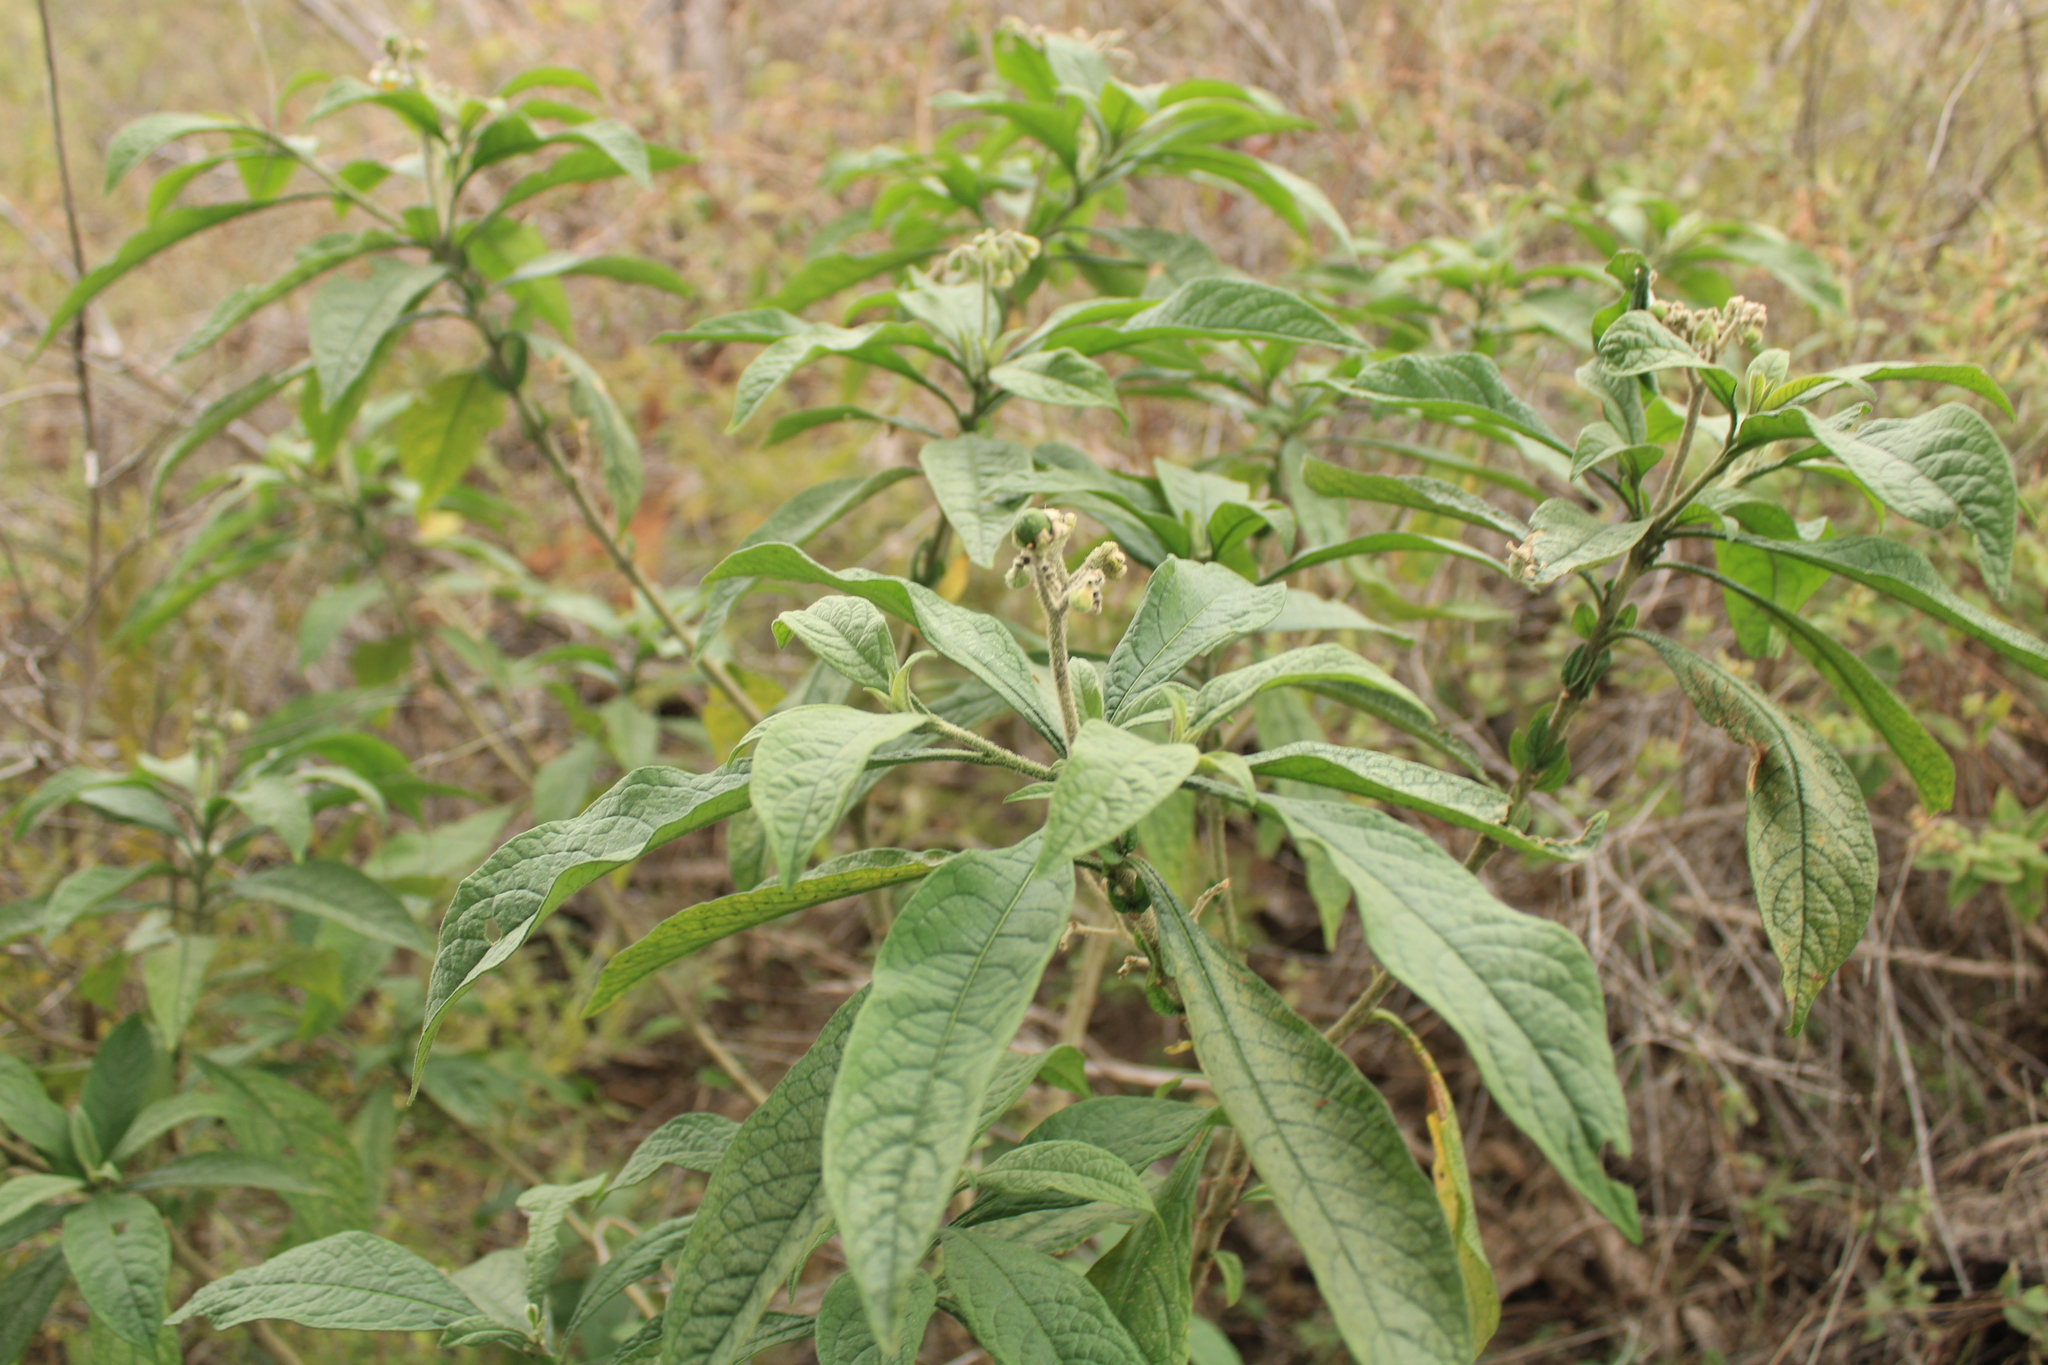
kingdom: Plantae
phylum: Tracheophyta
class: Magnoliopsida
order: Solanales
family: Solanaceae
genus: Solanum
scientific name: Solanum umbellatum
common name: Nightshade
